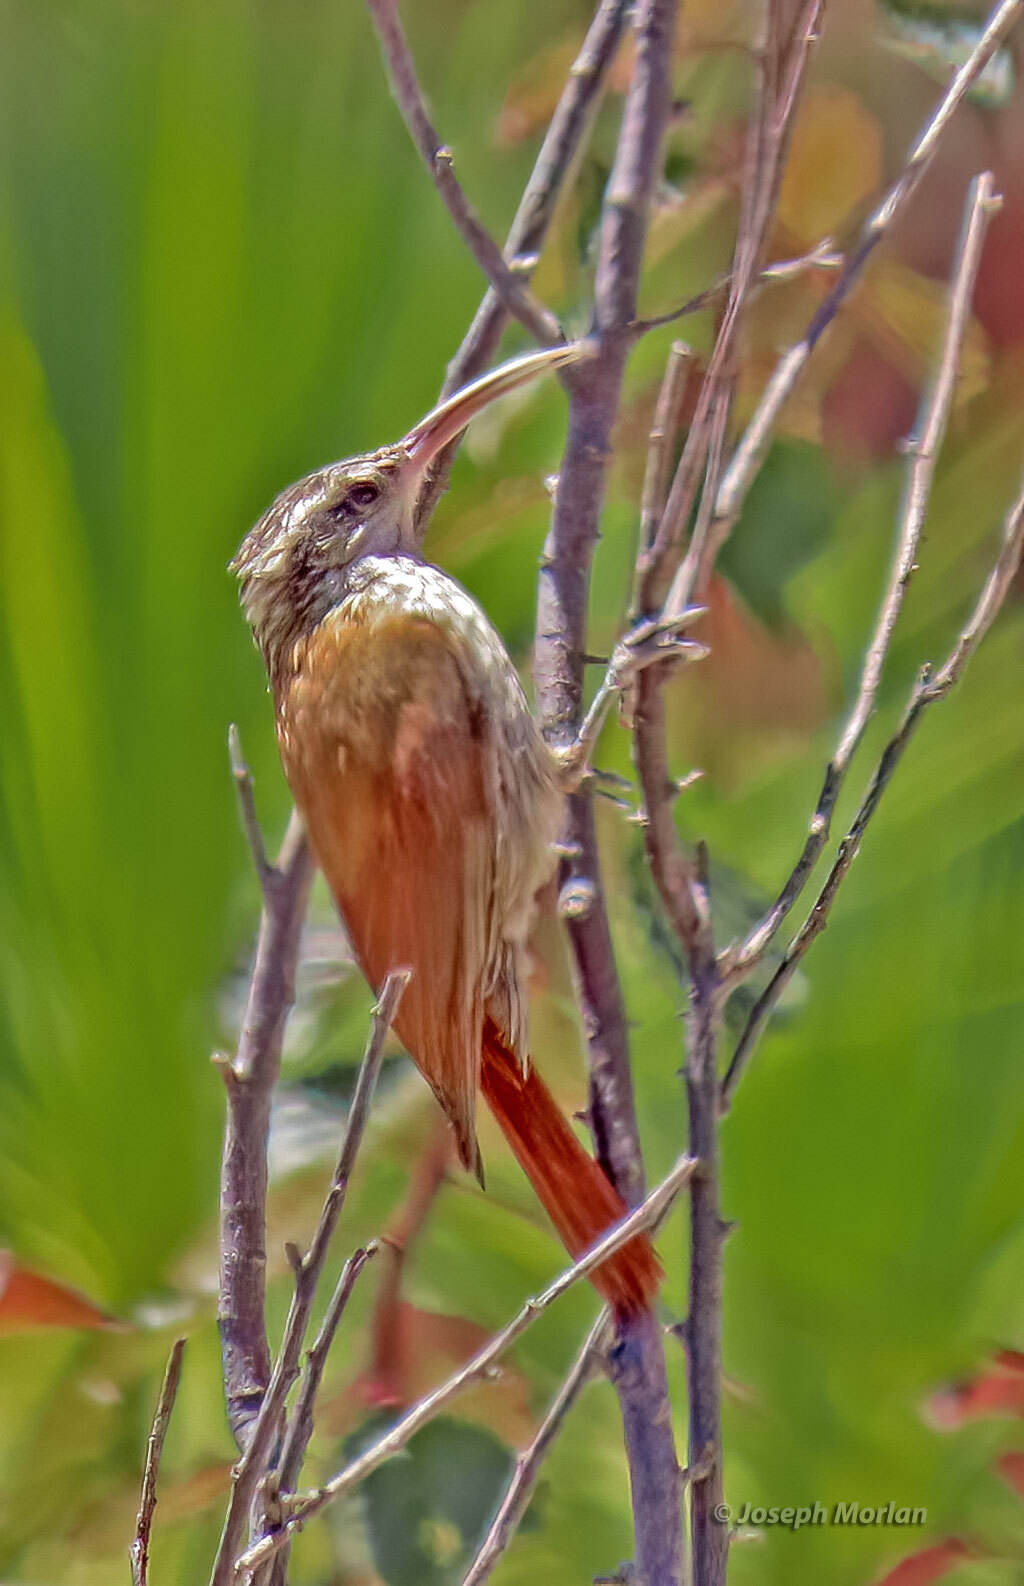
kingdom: Animalia
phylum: Chordata
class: Aves
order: Passeriformes
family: Furnariidae
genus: Lepidocolaptes
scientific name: Lepidocolaptes angustirostris
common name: Narrow-billed woodcreeper
